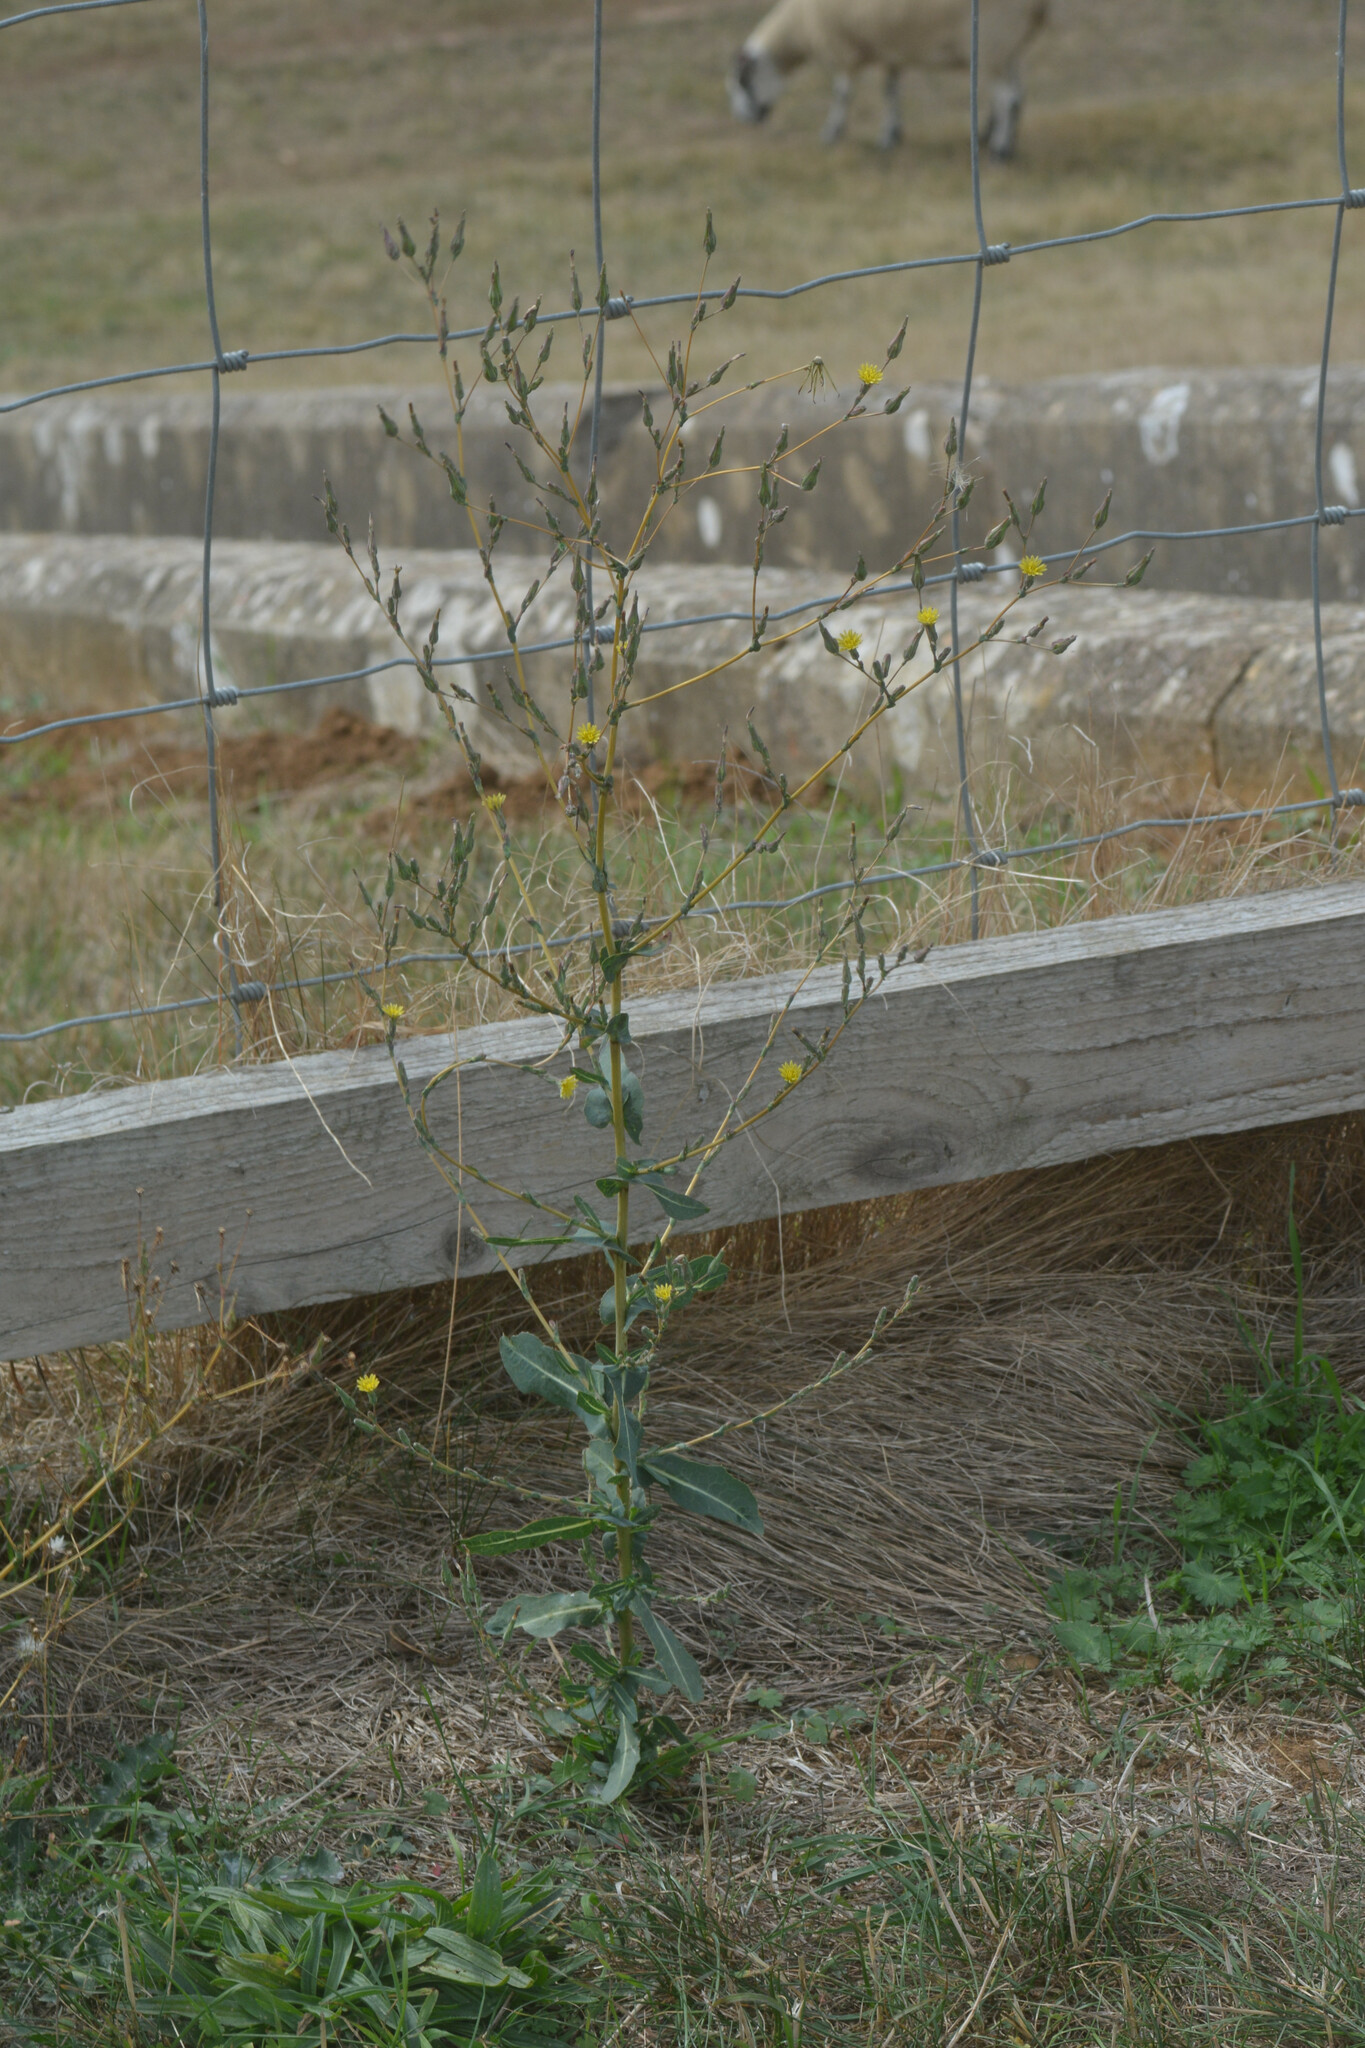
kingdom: Plantae
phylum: Tracheophyta
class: Magnoliopsida
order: Asterales
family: Asteraceae
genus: Lactuca
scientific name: Lactuca serriola
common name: Prickly lettuce
